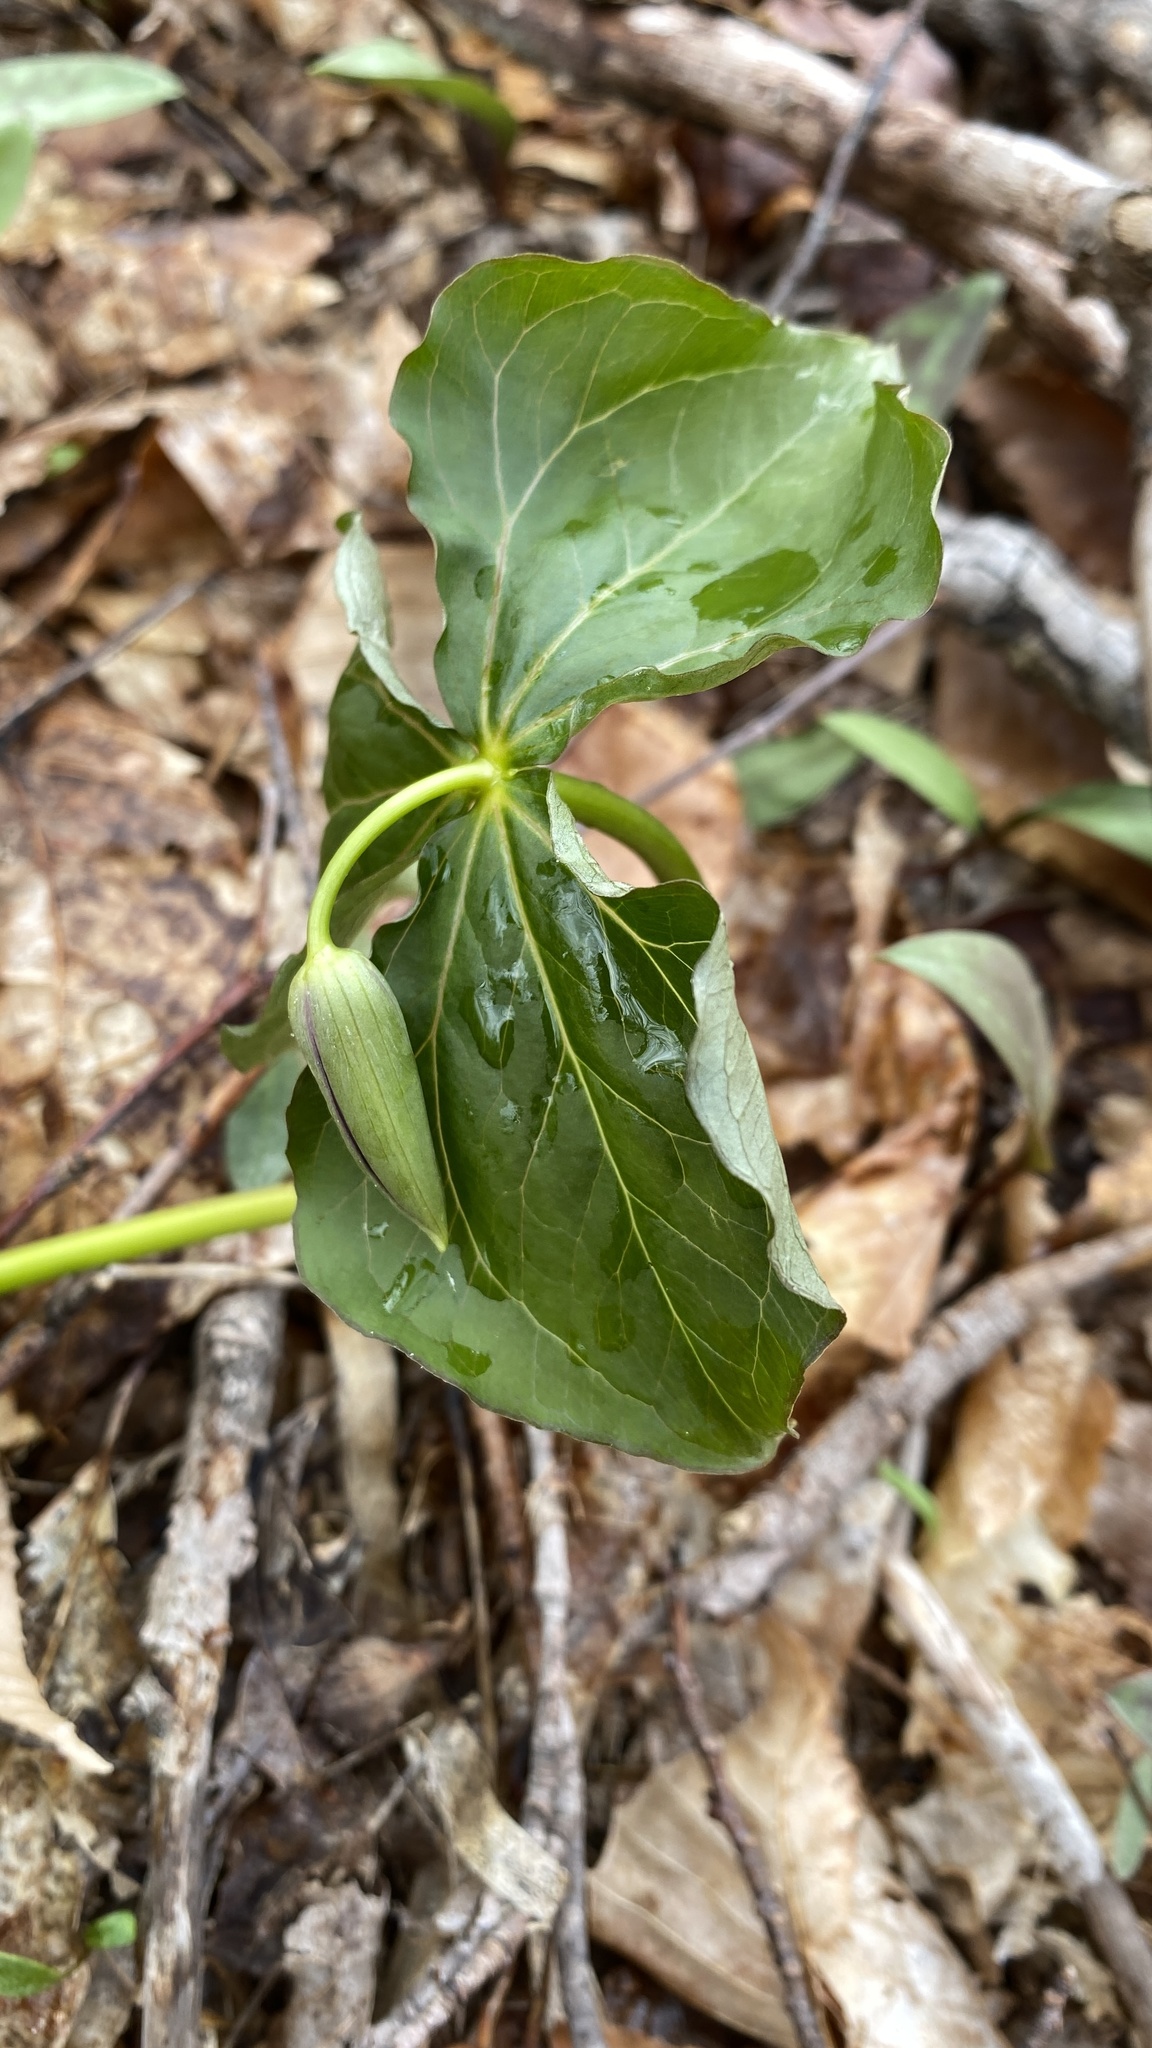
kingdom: Plantae
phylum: Tracheophyta
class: Liliopsida
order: Liliales
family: Melanthiaceae
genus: Trillium
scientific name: Trillium erectum
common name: Purple trillium
